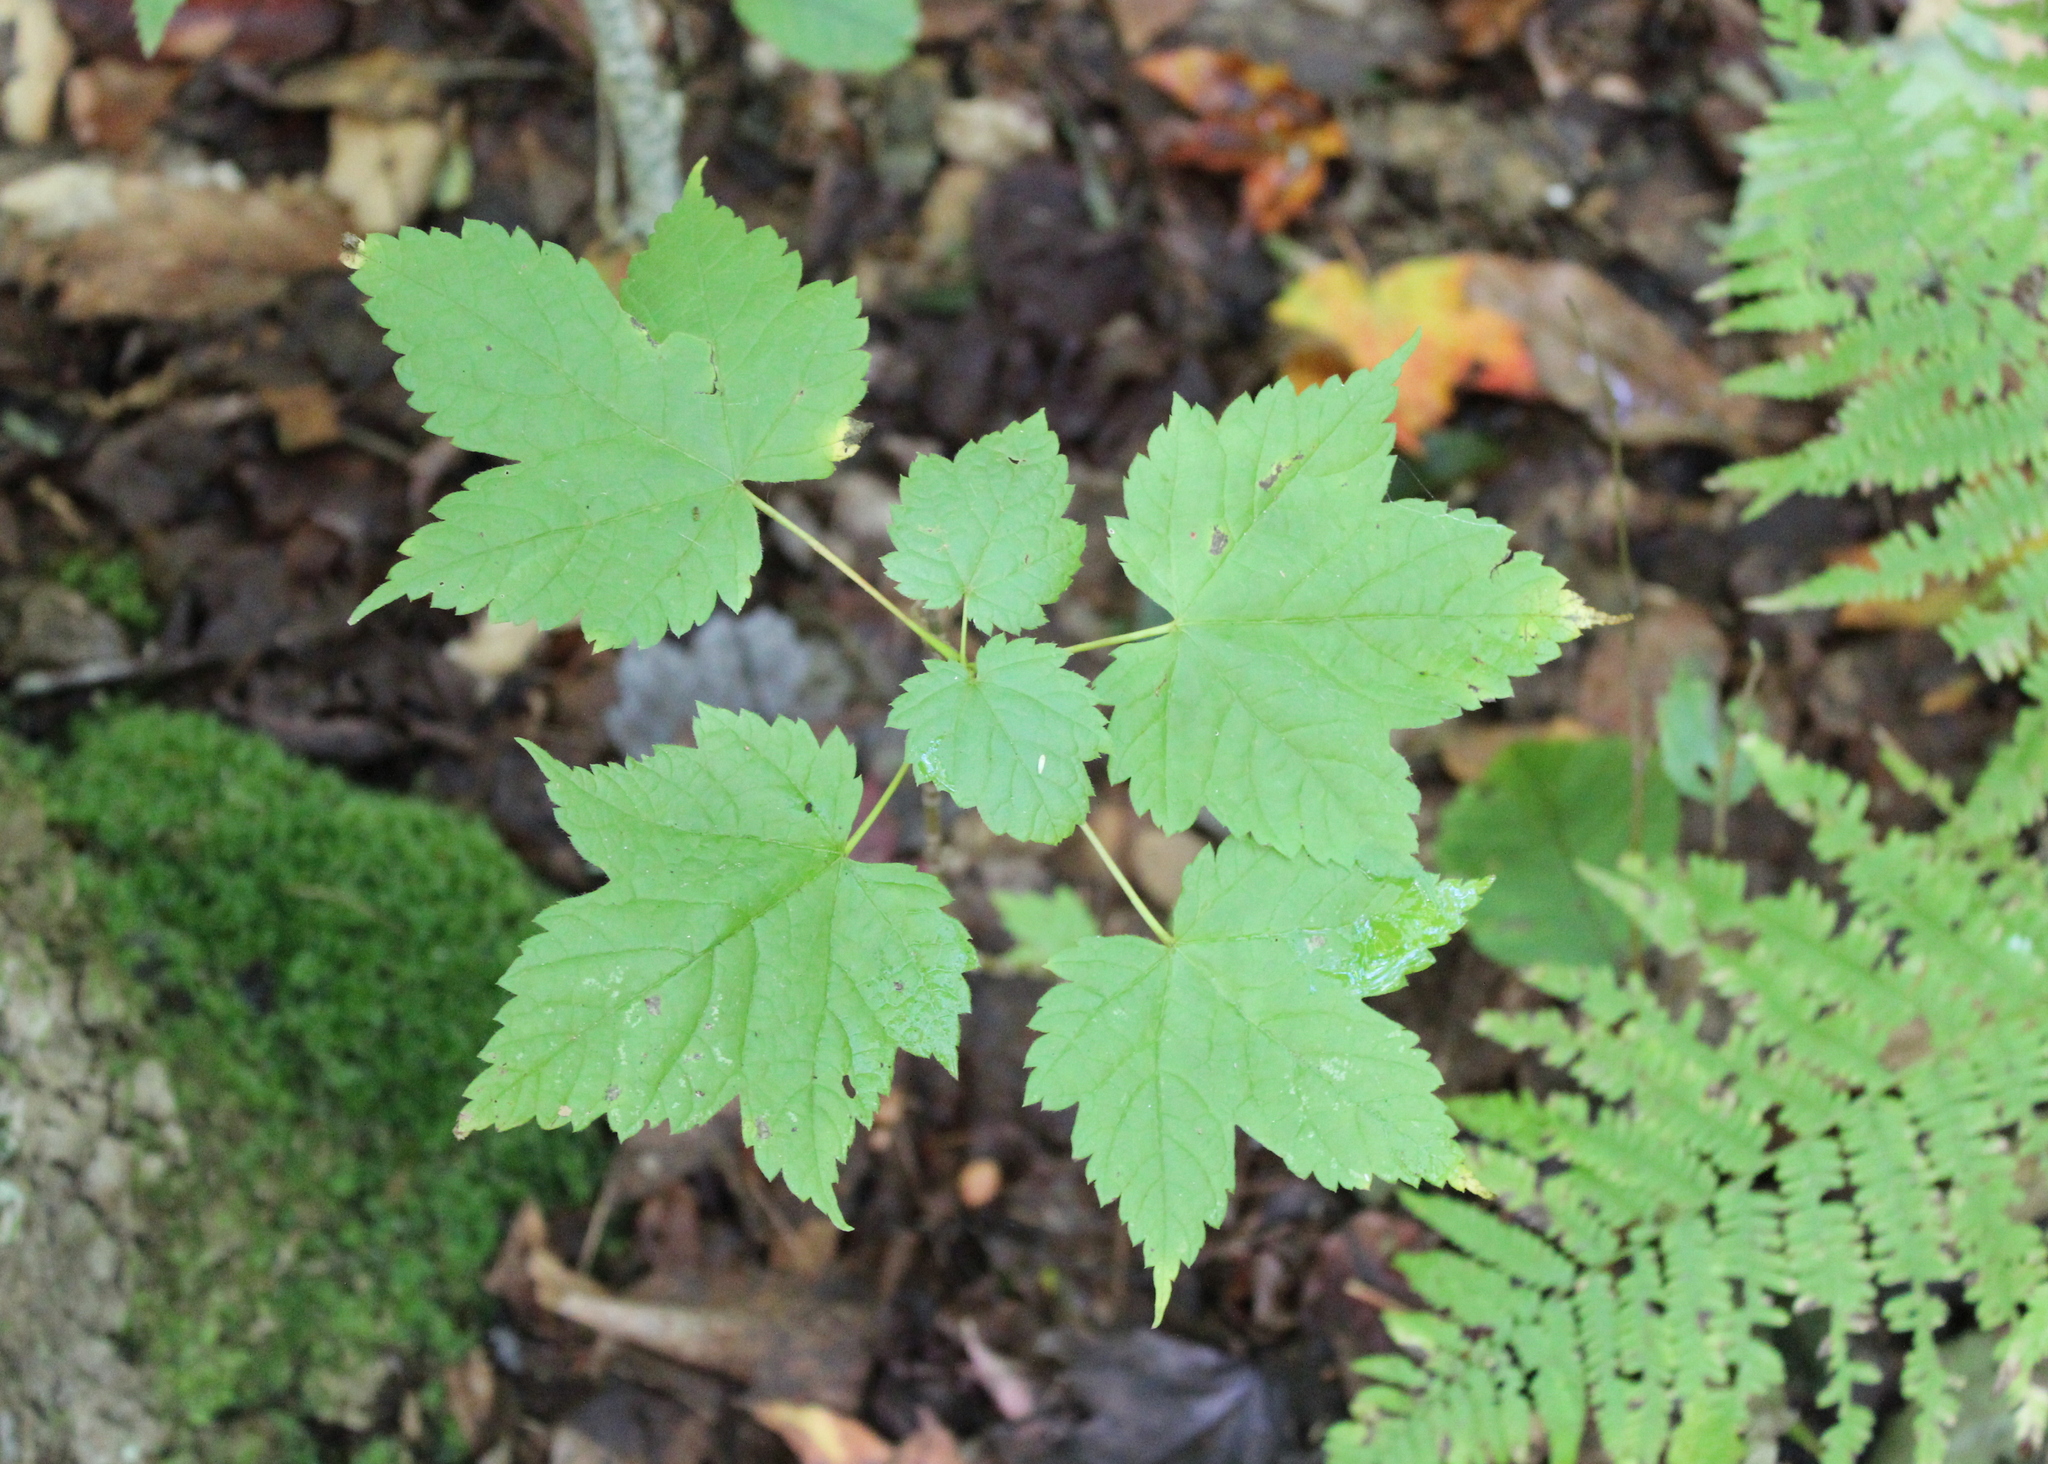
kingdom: Plantae
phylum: Tracheophyta
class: Magnoliopsida
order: Sapindales
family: Sapindaceae
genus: Acer
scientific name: Acer spicatum
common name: Mountain maple
